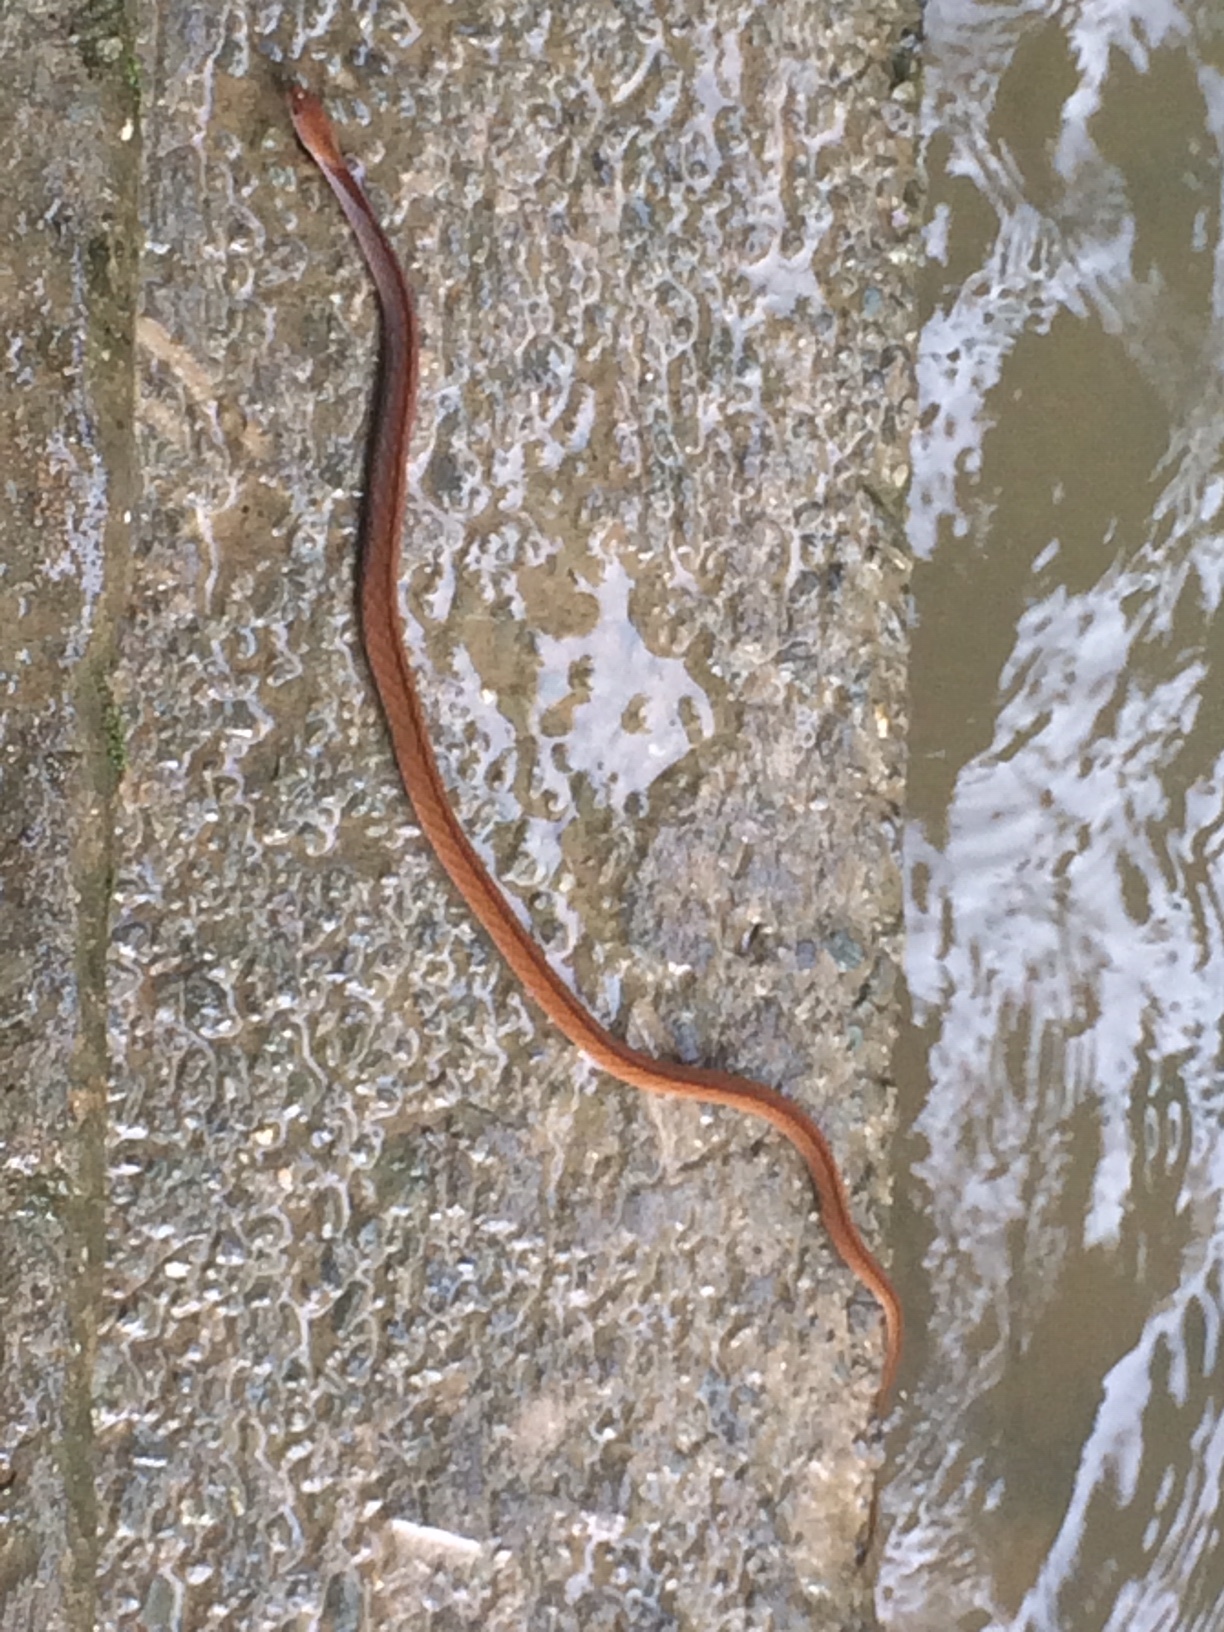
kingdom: Animalia
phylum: Chordata
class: Squamata
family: Colubridae
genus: Rhabdophis
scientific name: Rhabdophis rhodomelas
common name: Blue-necked keelback
